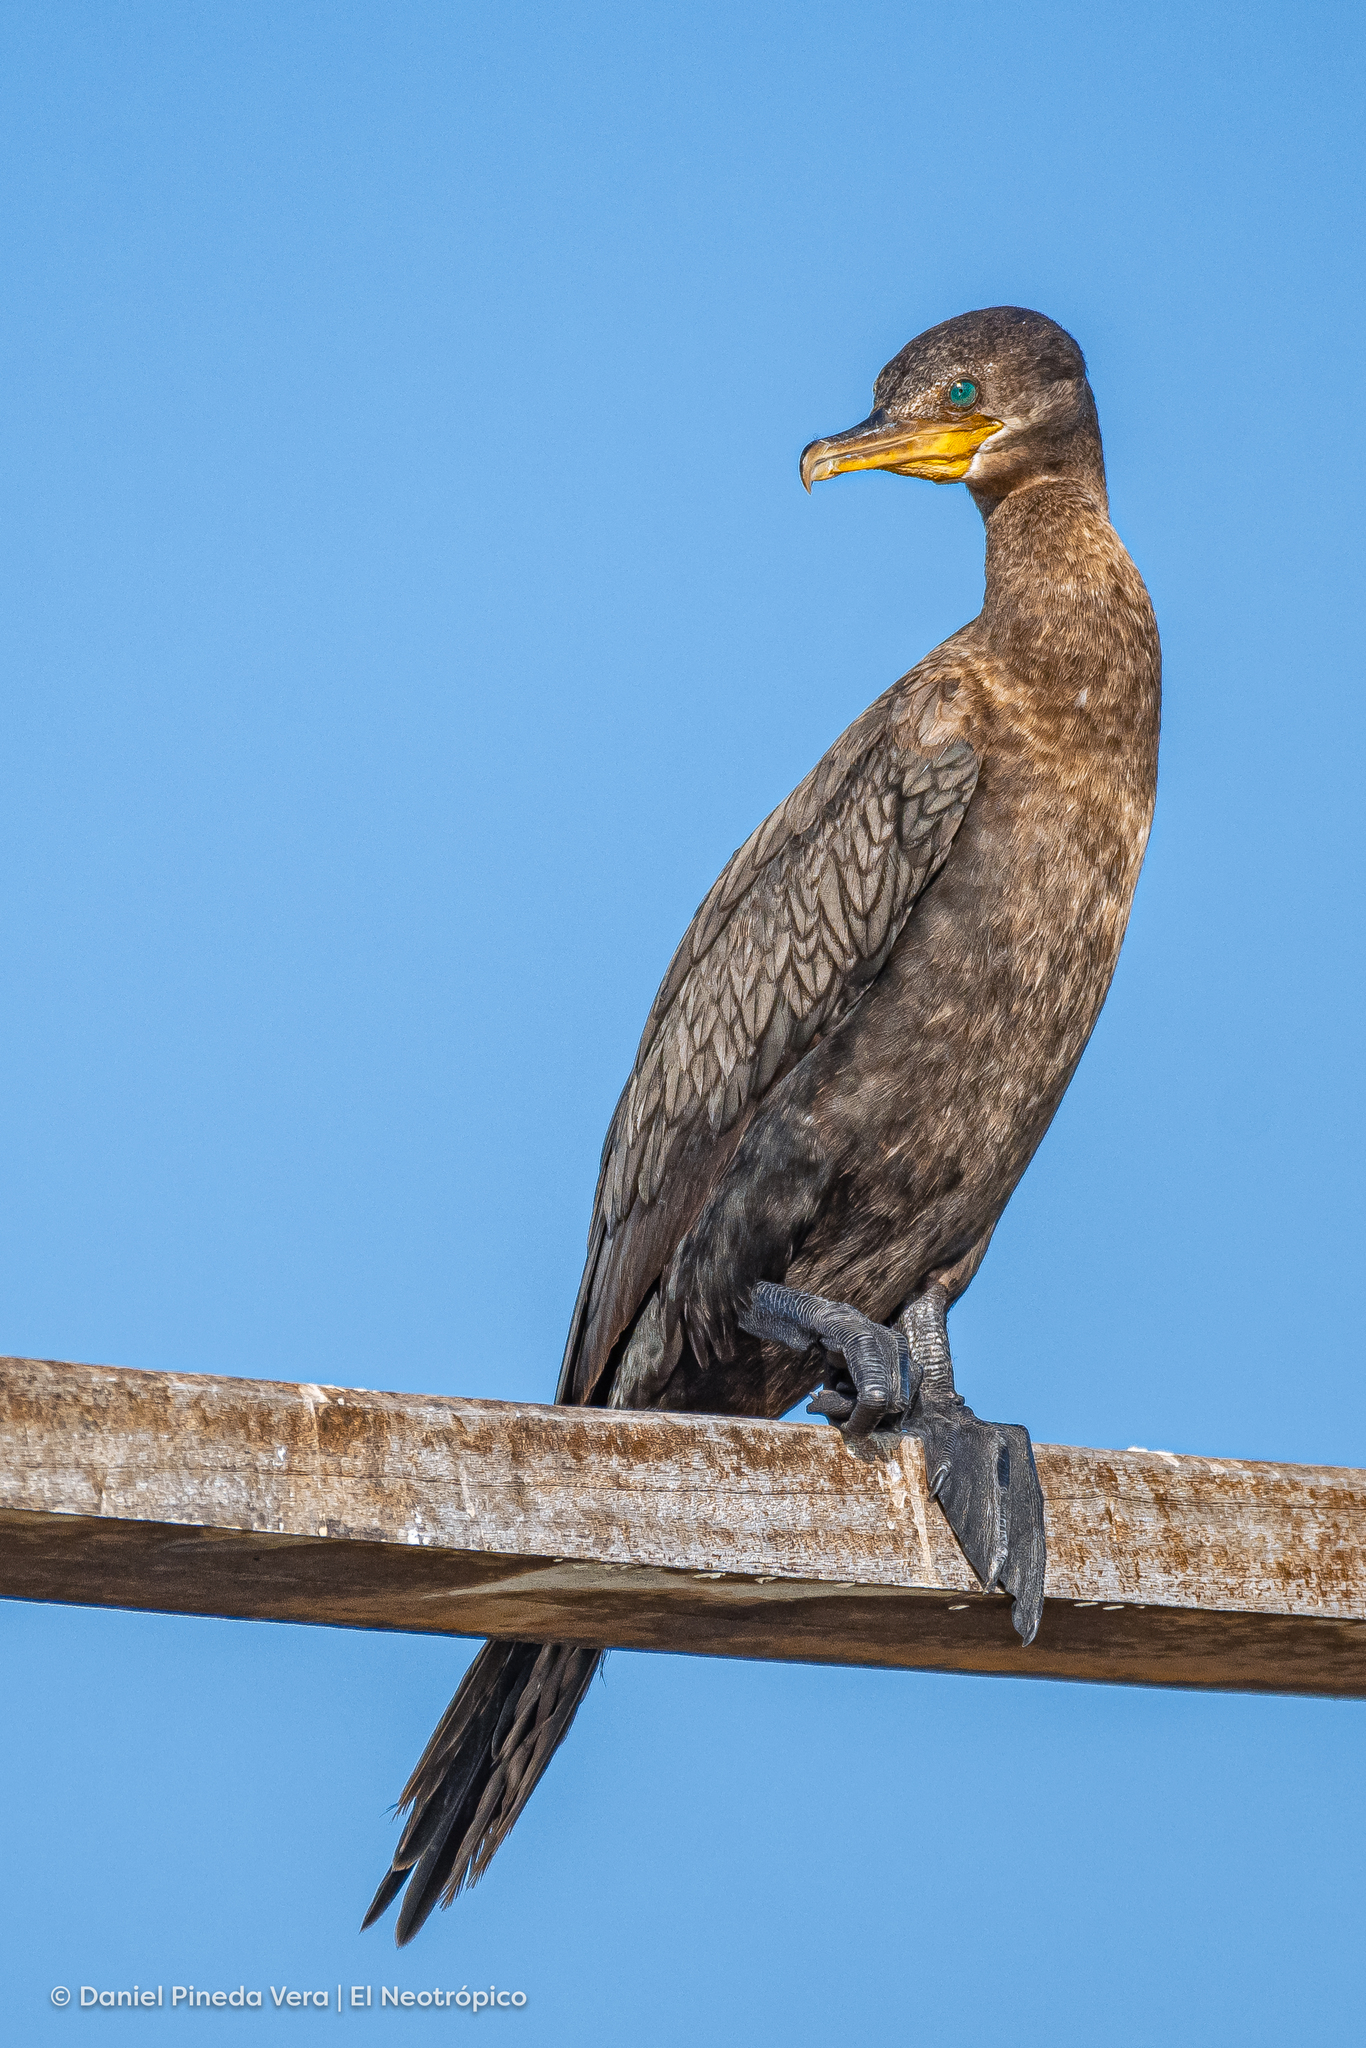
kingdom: Animalia
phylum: Chordata
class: Aves
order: Suliformes
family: Phalacrocoracidae
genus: Phalacrocorax
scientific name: Phalacrocorax brasilianus
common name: Neotropic cormorant
